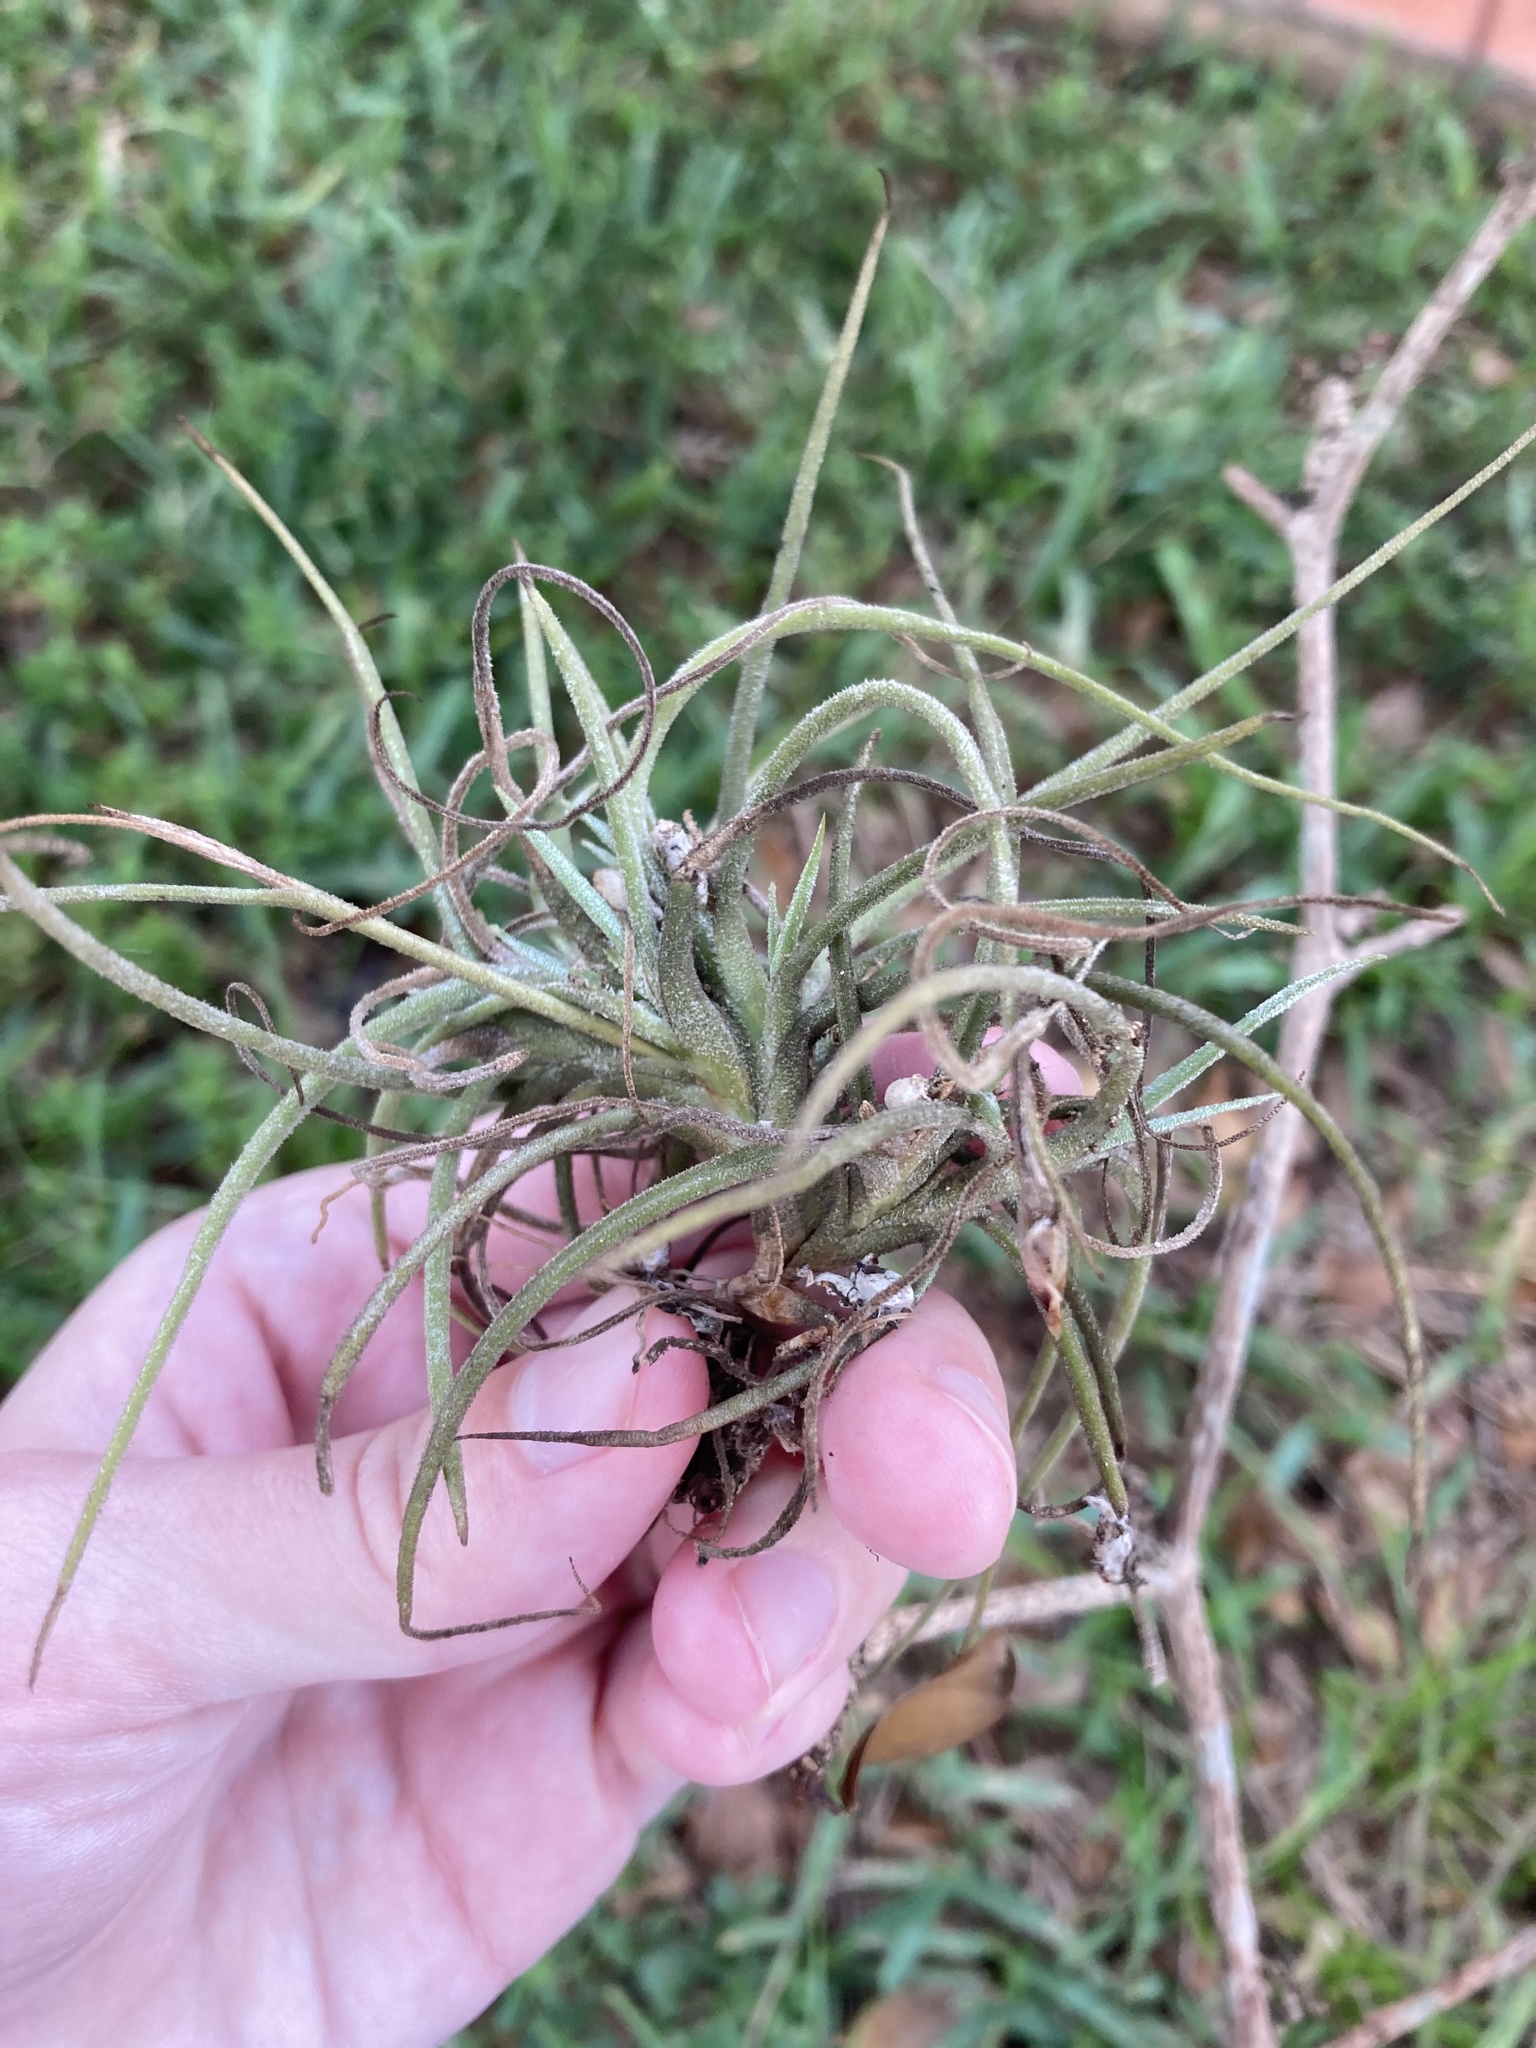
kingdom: Plantae
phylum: Tracheophyta
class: Liliopsida
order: Poales
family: Bromeliaceae
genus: Tillandsia
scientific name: Tillandsia recurvata
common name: Small ballmoss
